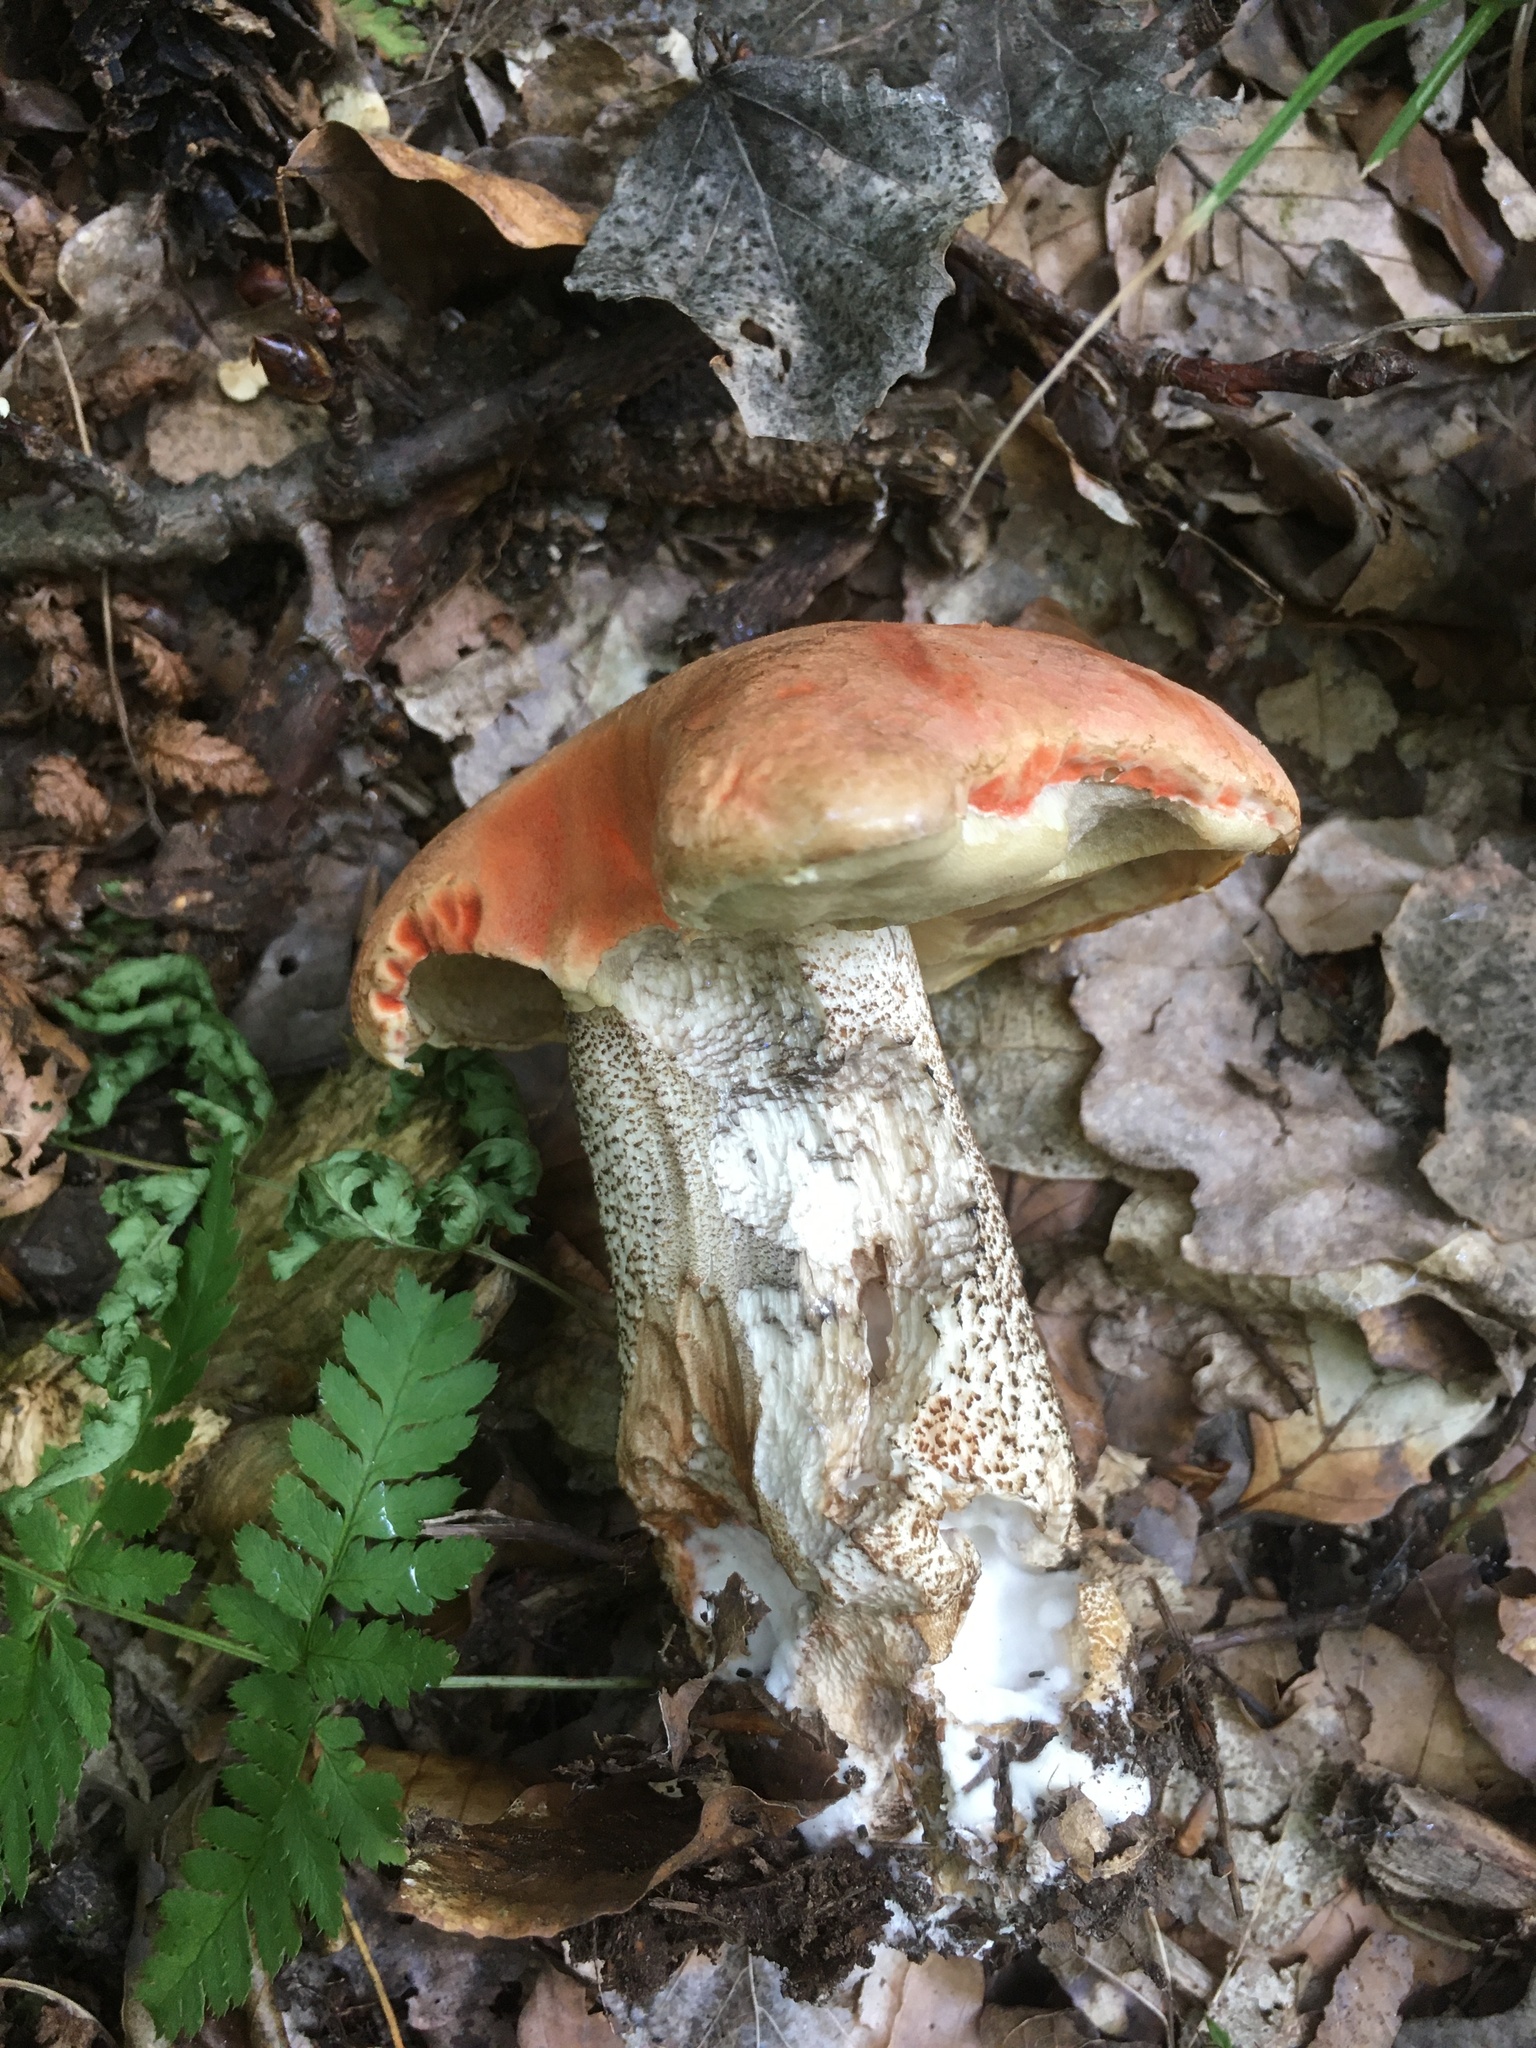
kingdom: Fungi
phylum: Basidiomycota
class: Agaricomycetes
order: Boletales
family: Boletaceae
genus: Leccinum
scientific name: Leccinum aurantiacum
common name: Orange bolete
